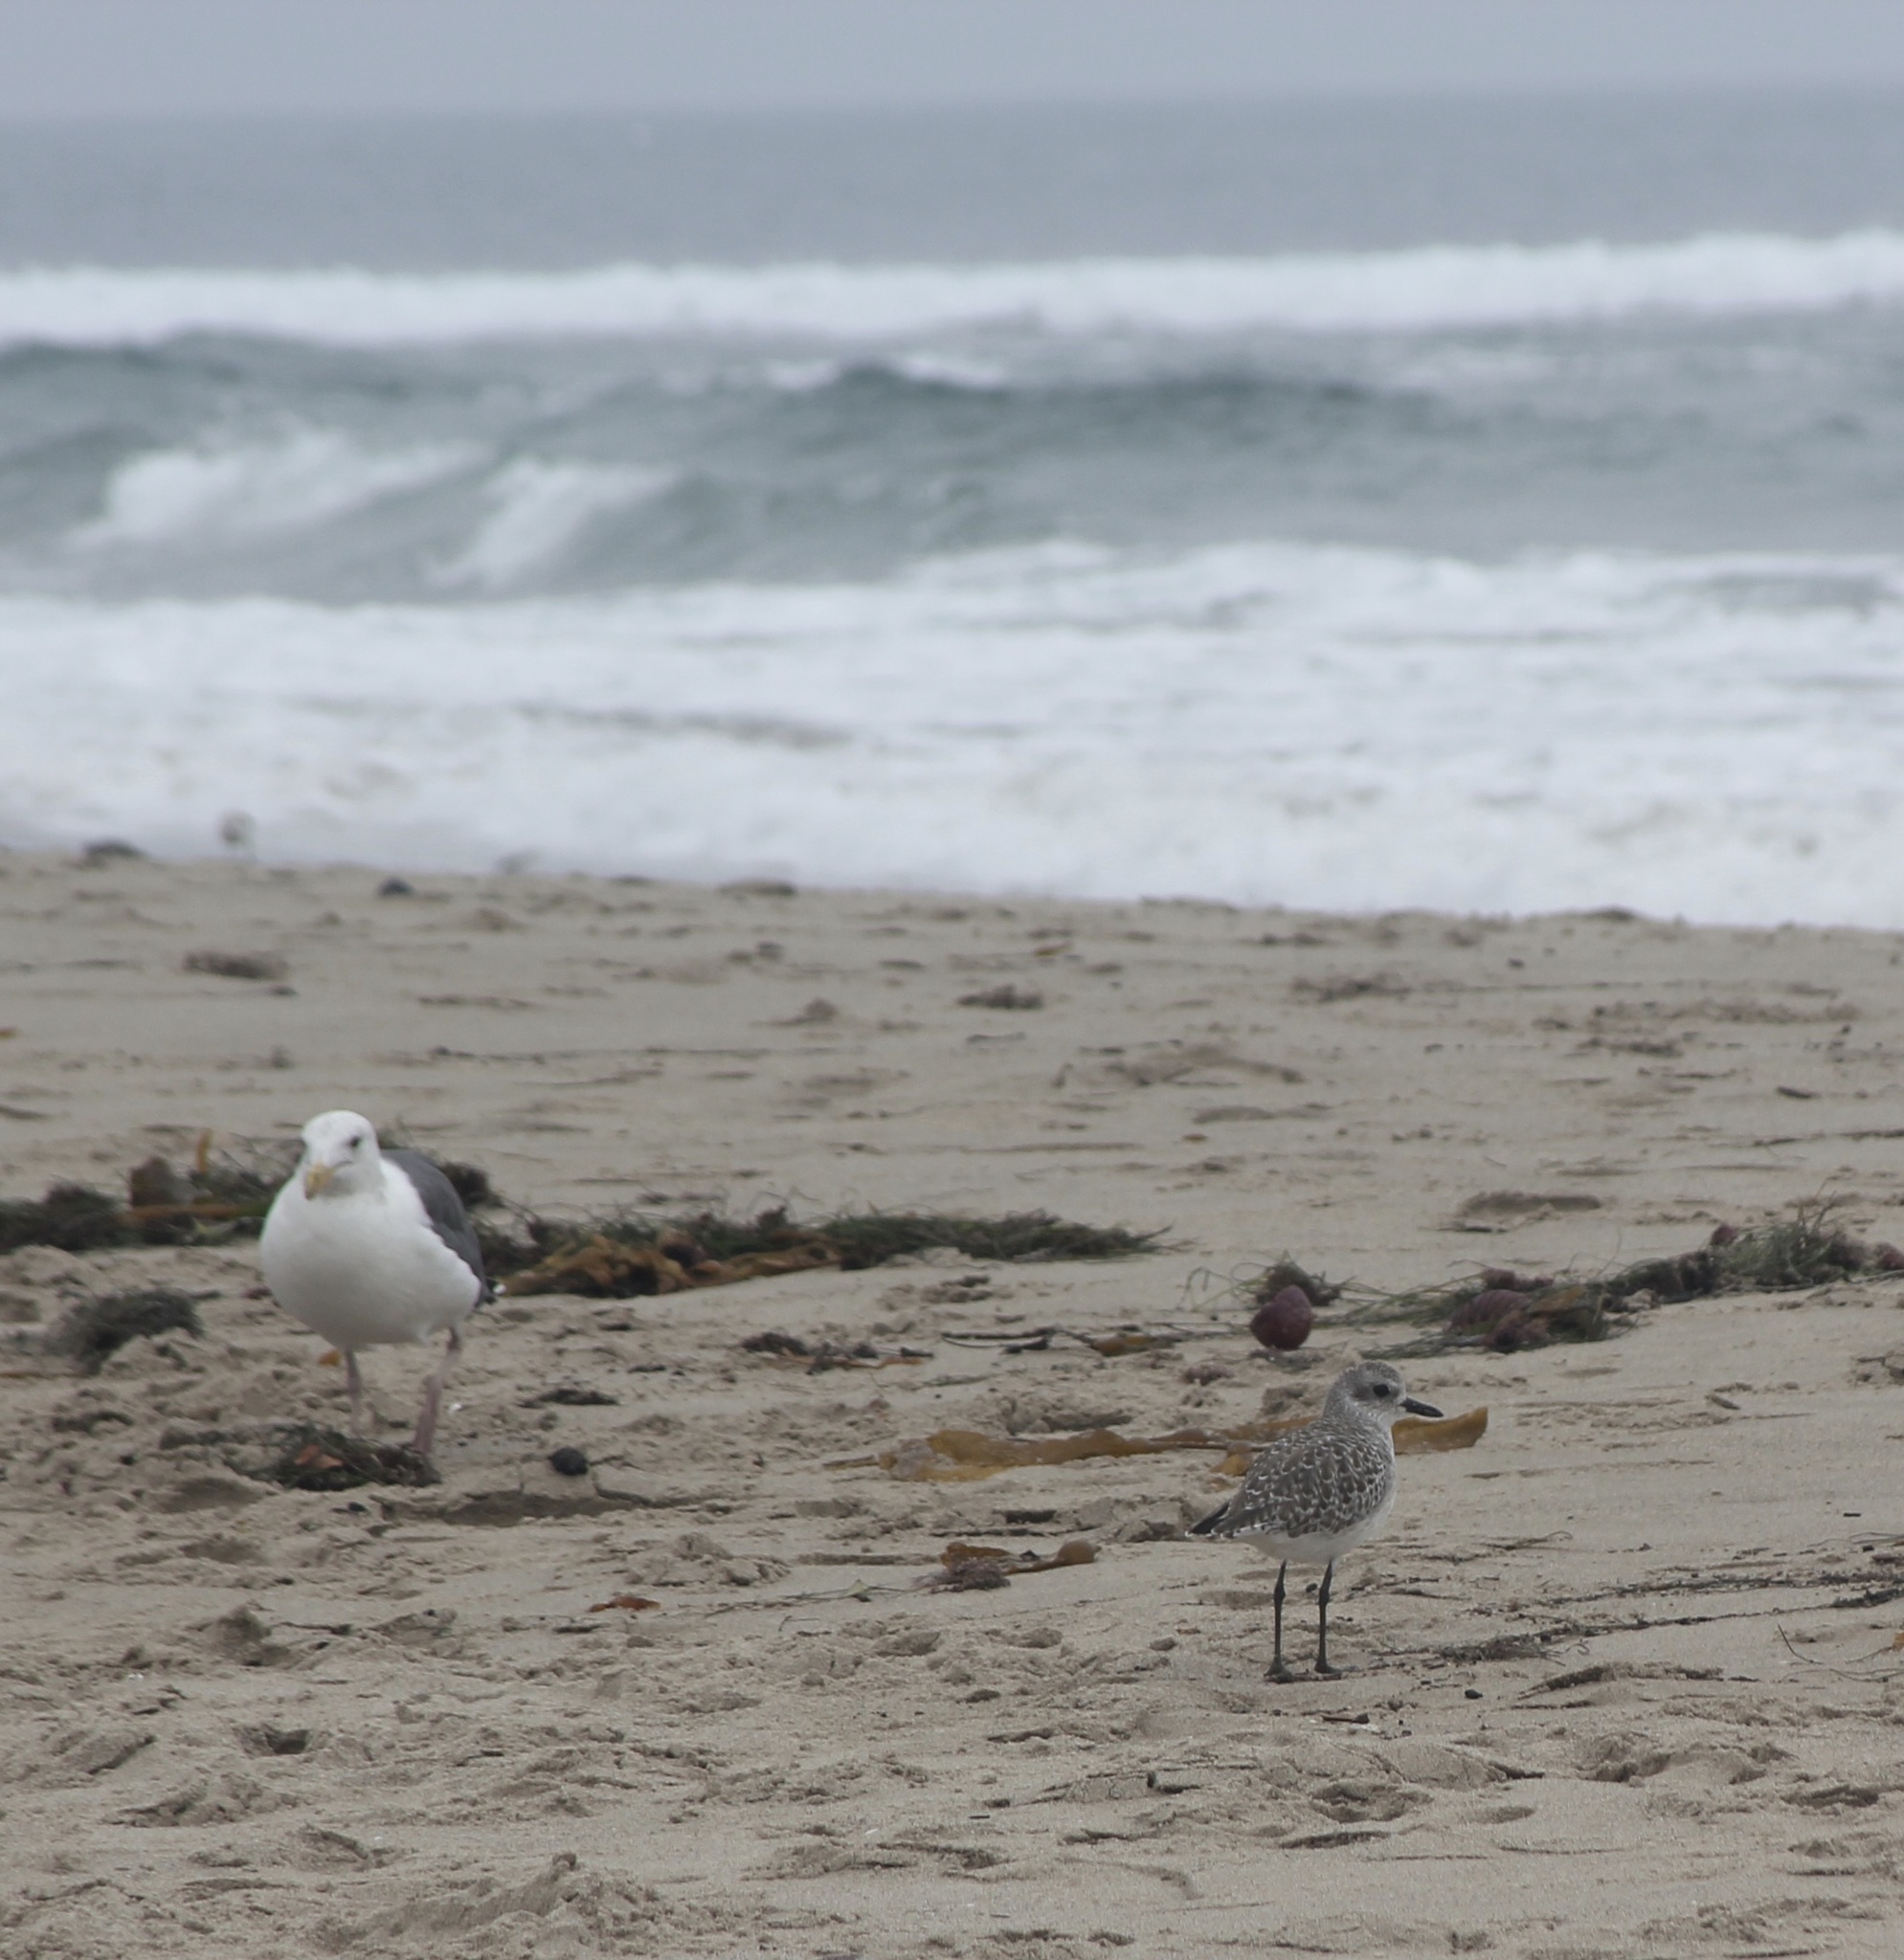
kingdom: Animalia
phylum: Chordata
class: Aves
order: Charadriiformes
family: Charadriidae
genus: Pluvialis
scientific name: Pluvialis squatarola
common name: Grey plover
